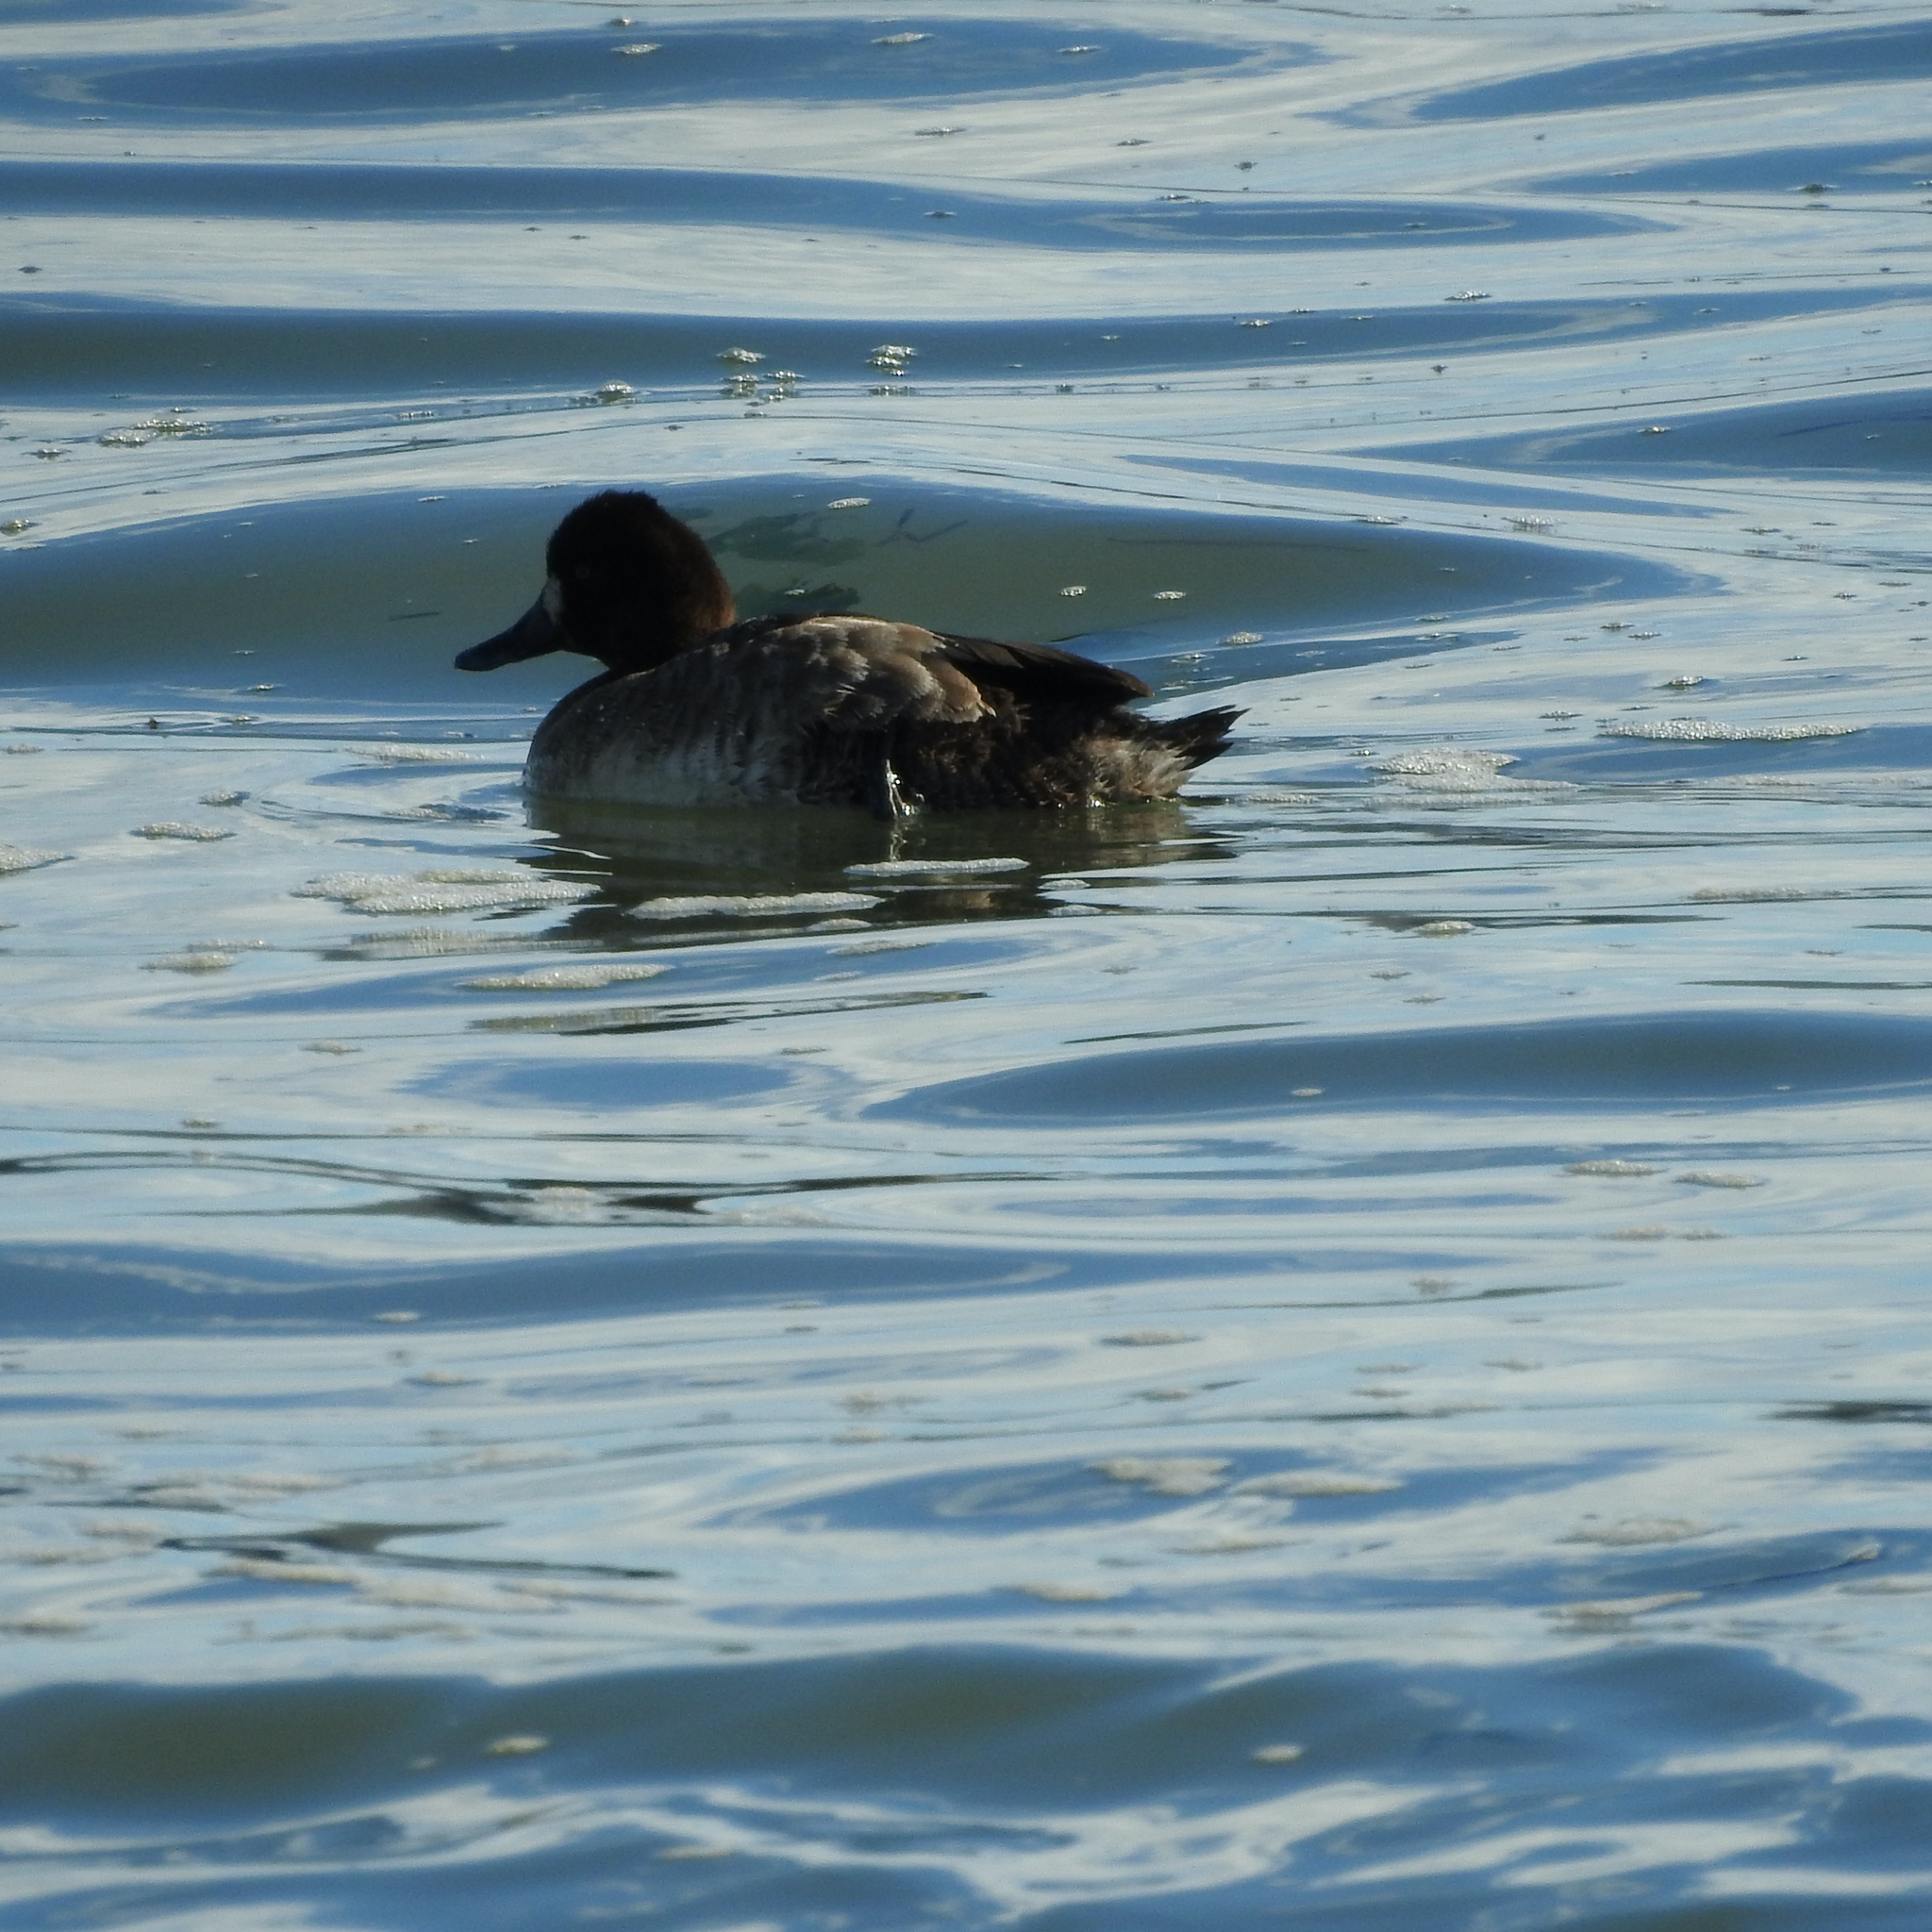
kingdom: Animalia
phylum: Chordata
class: Aves
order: Anseriformes
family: Anatidae
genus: Aythya
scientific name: Aythya affinis
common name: Lesser scaup
